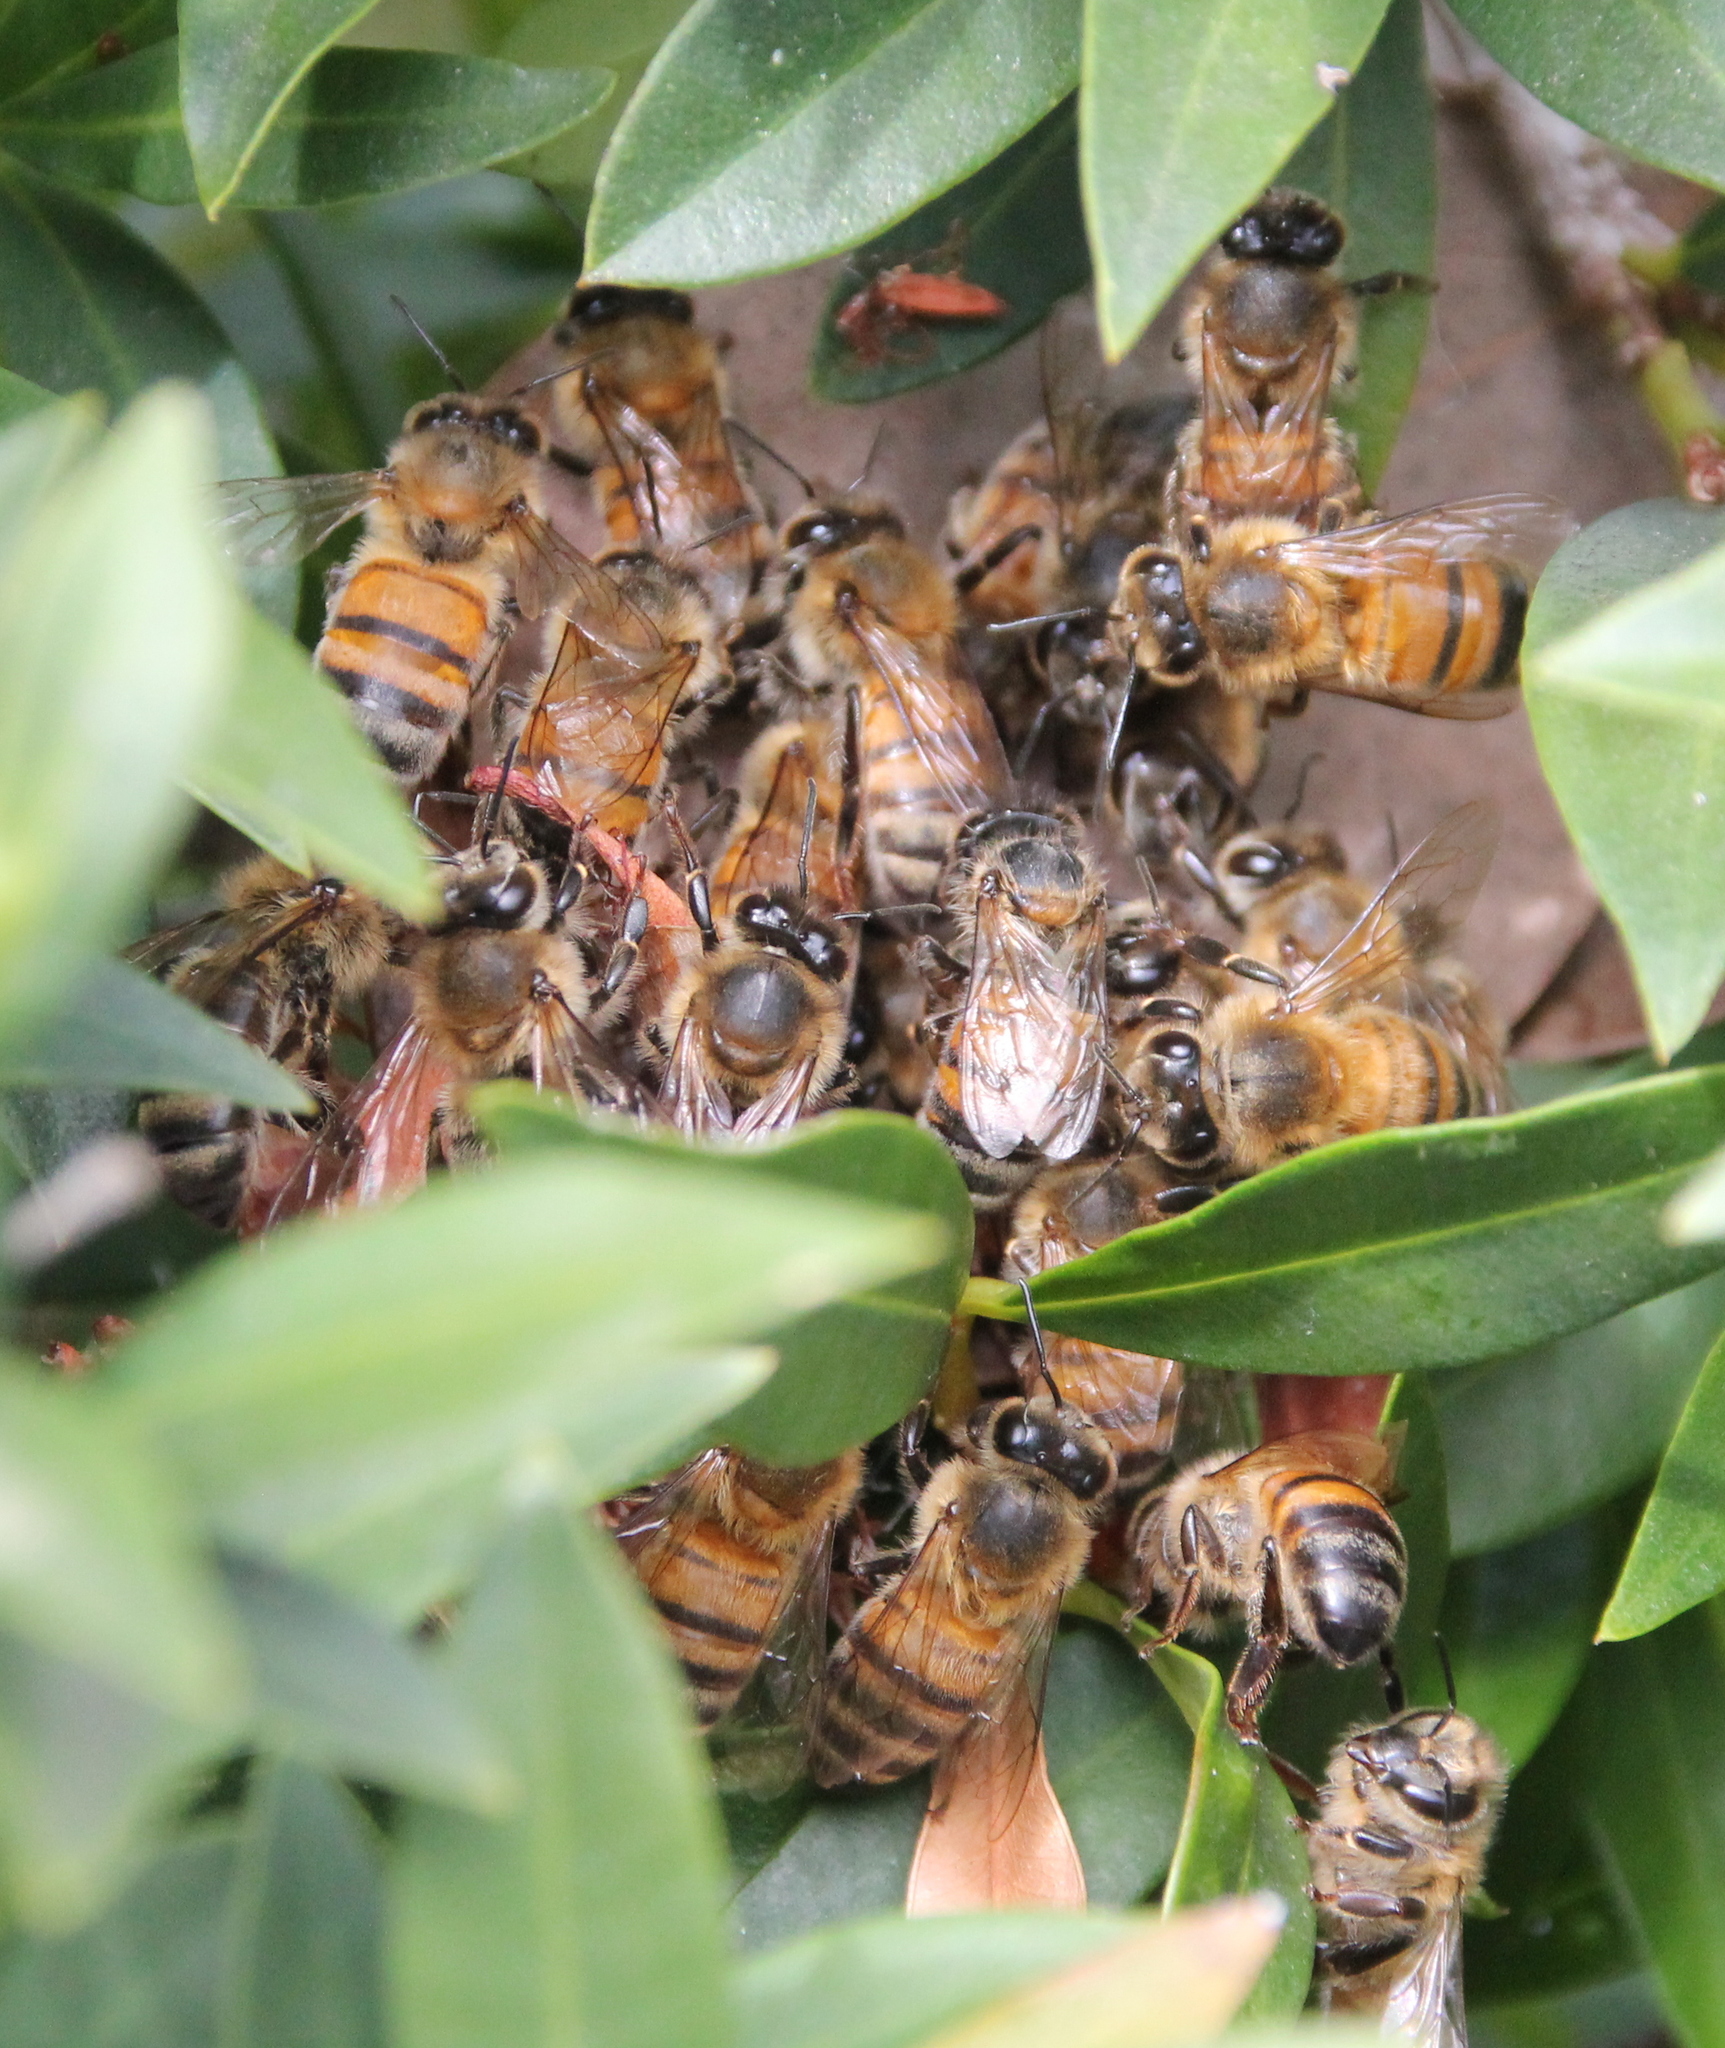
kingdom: Animalia
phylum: Arthropoda
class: Insecta
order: Hymenoptera
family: Apidae
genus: Apis
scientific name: Apis mellifera
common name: Honey bee
